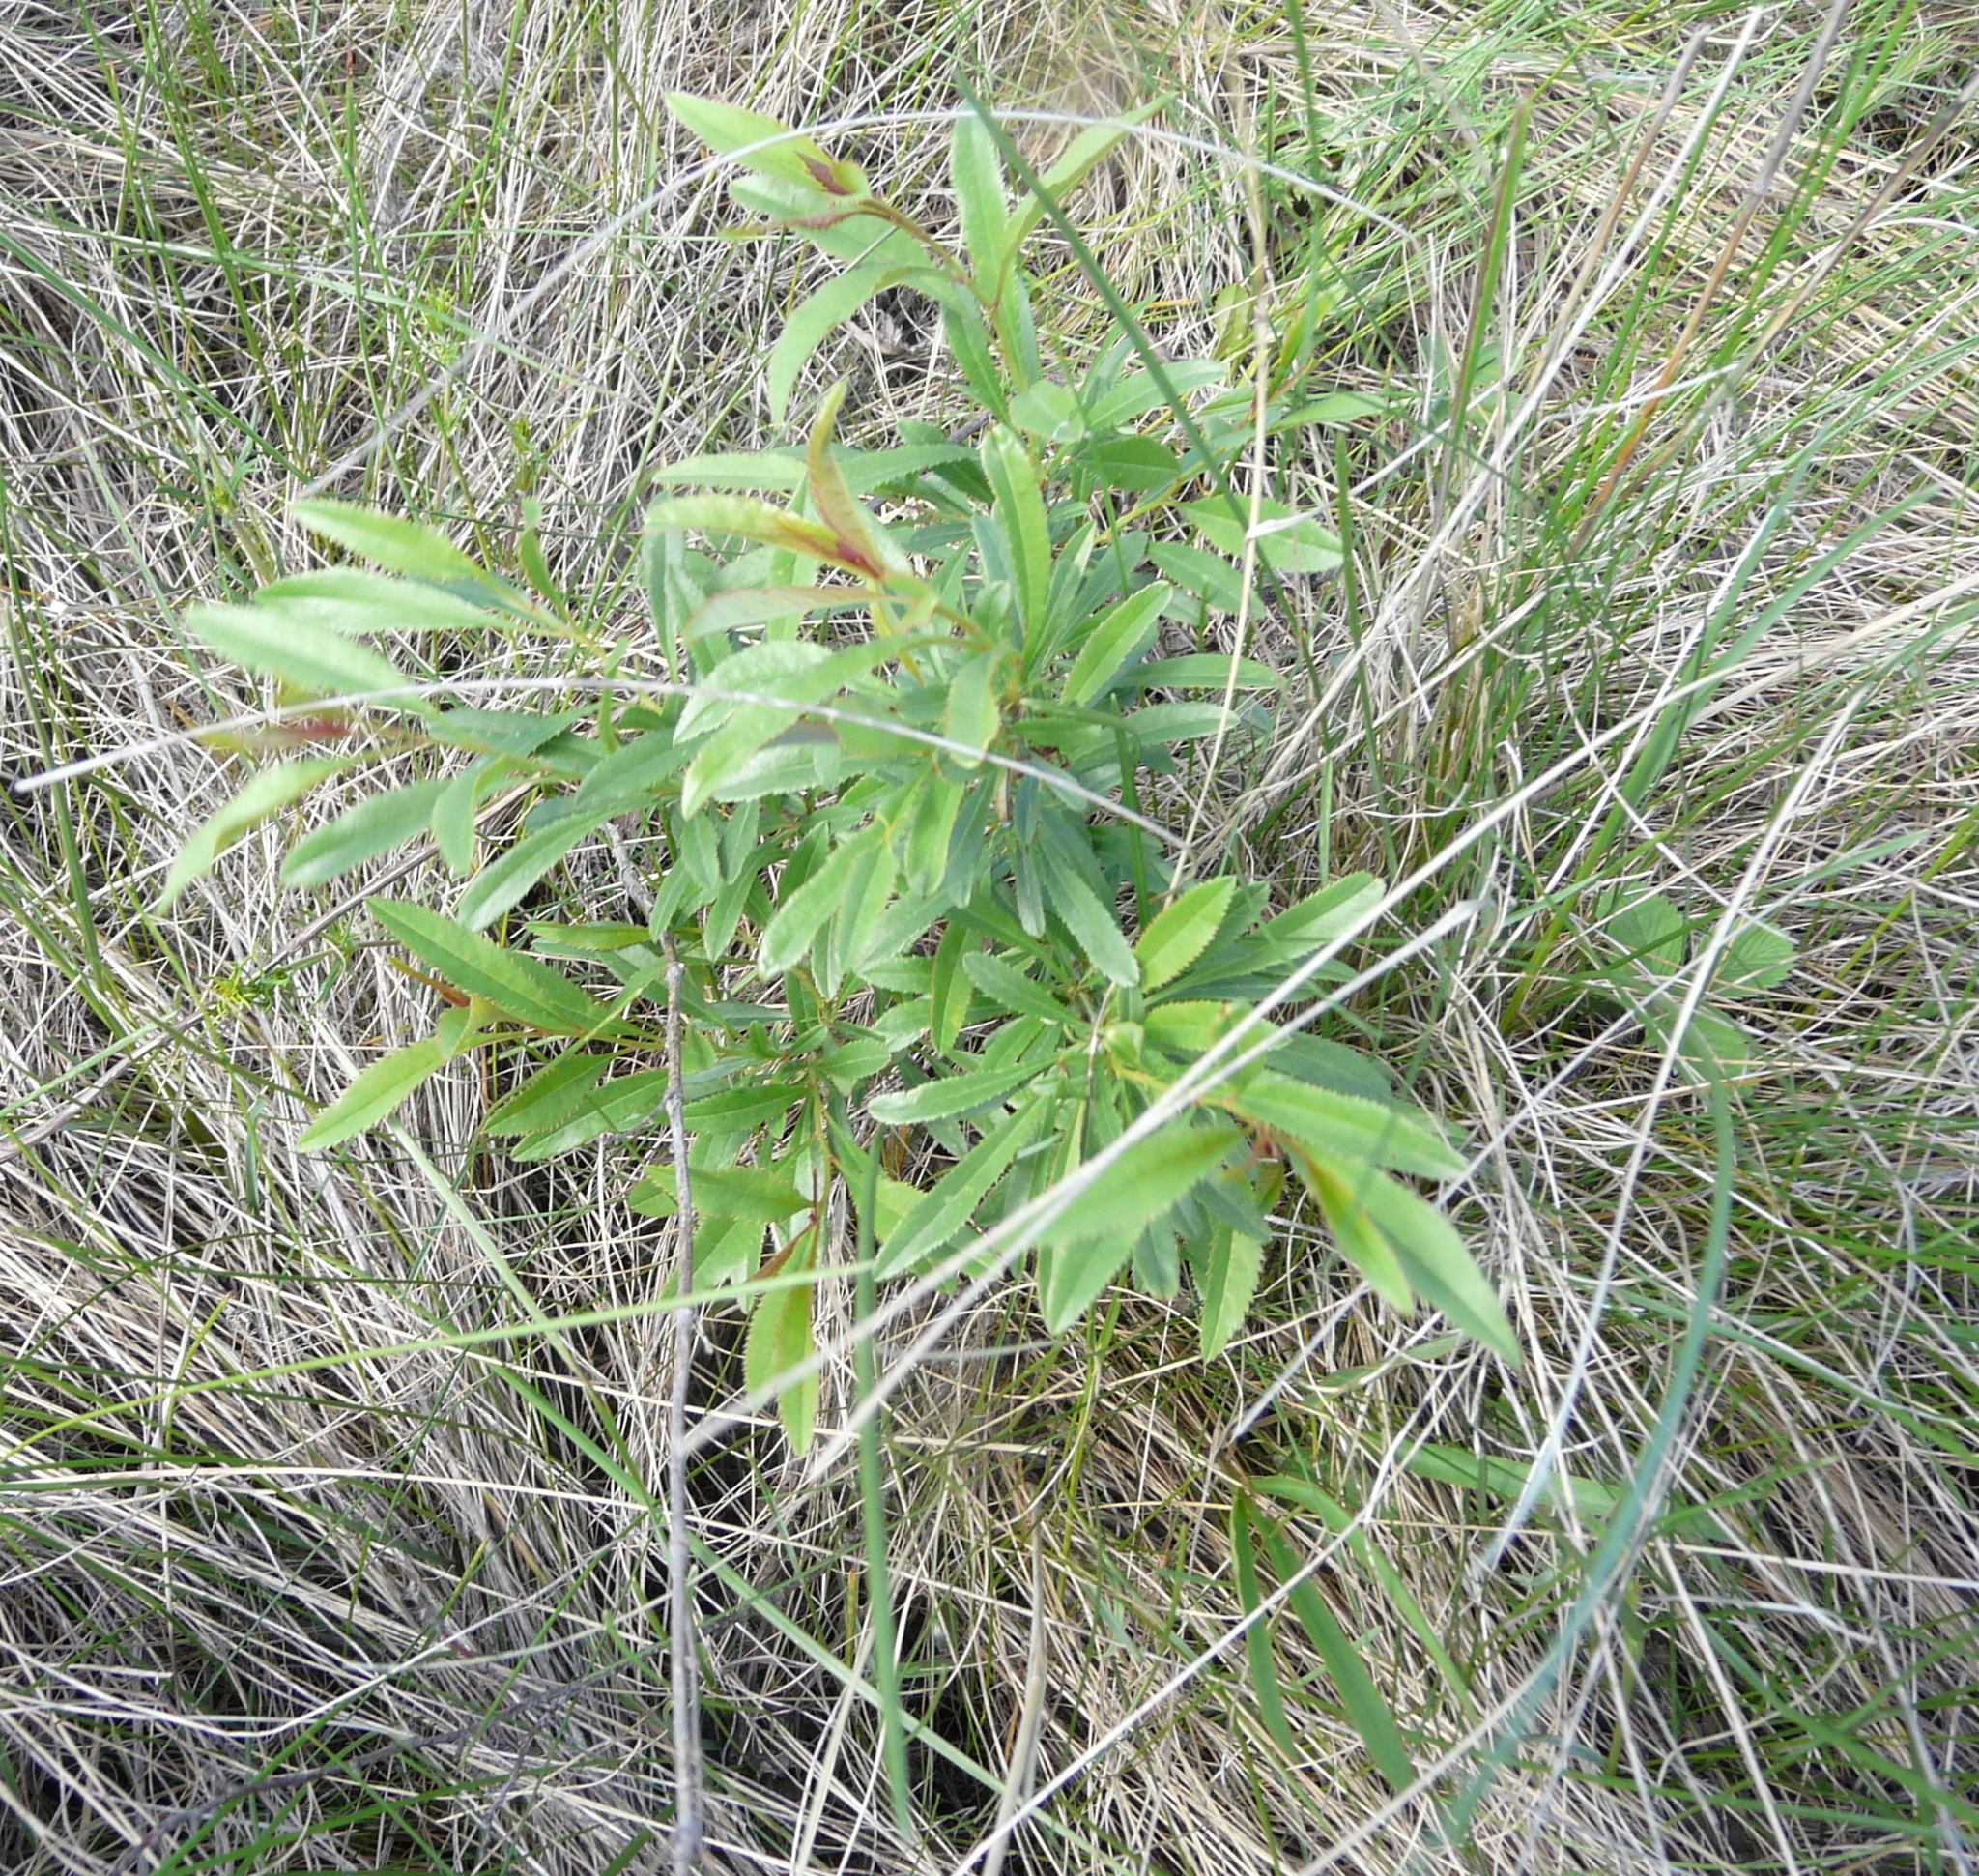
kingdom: Plantae
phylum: Tracheophyta
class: Magnoliopsida
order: Rosales
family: Rosaceae
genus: Prunus
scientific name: Prunus tenella
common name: Dwarf russian almond
